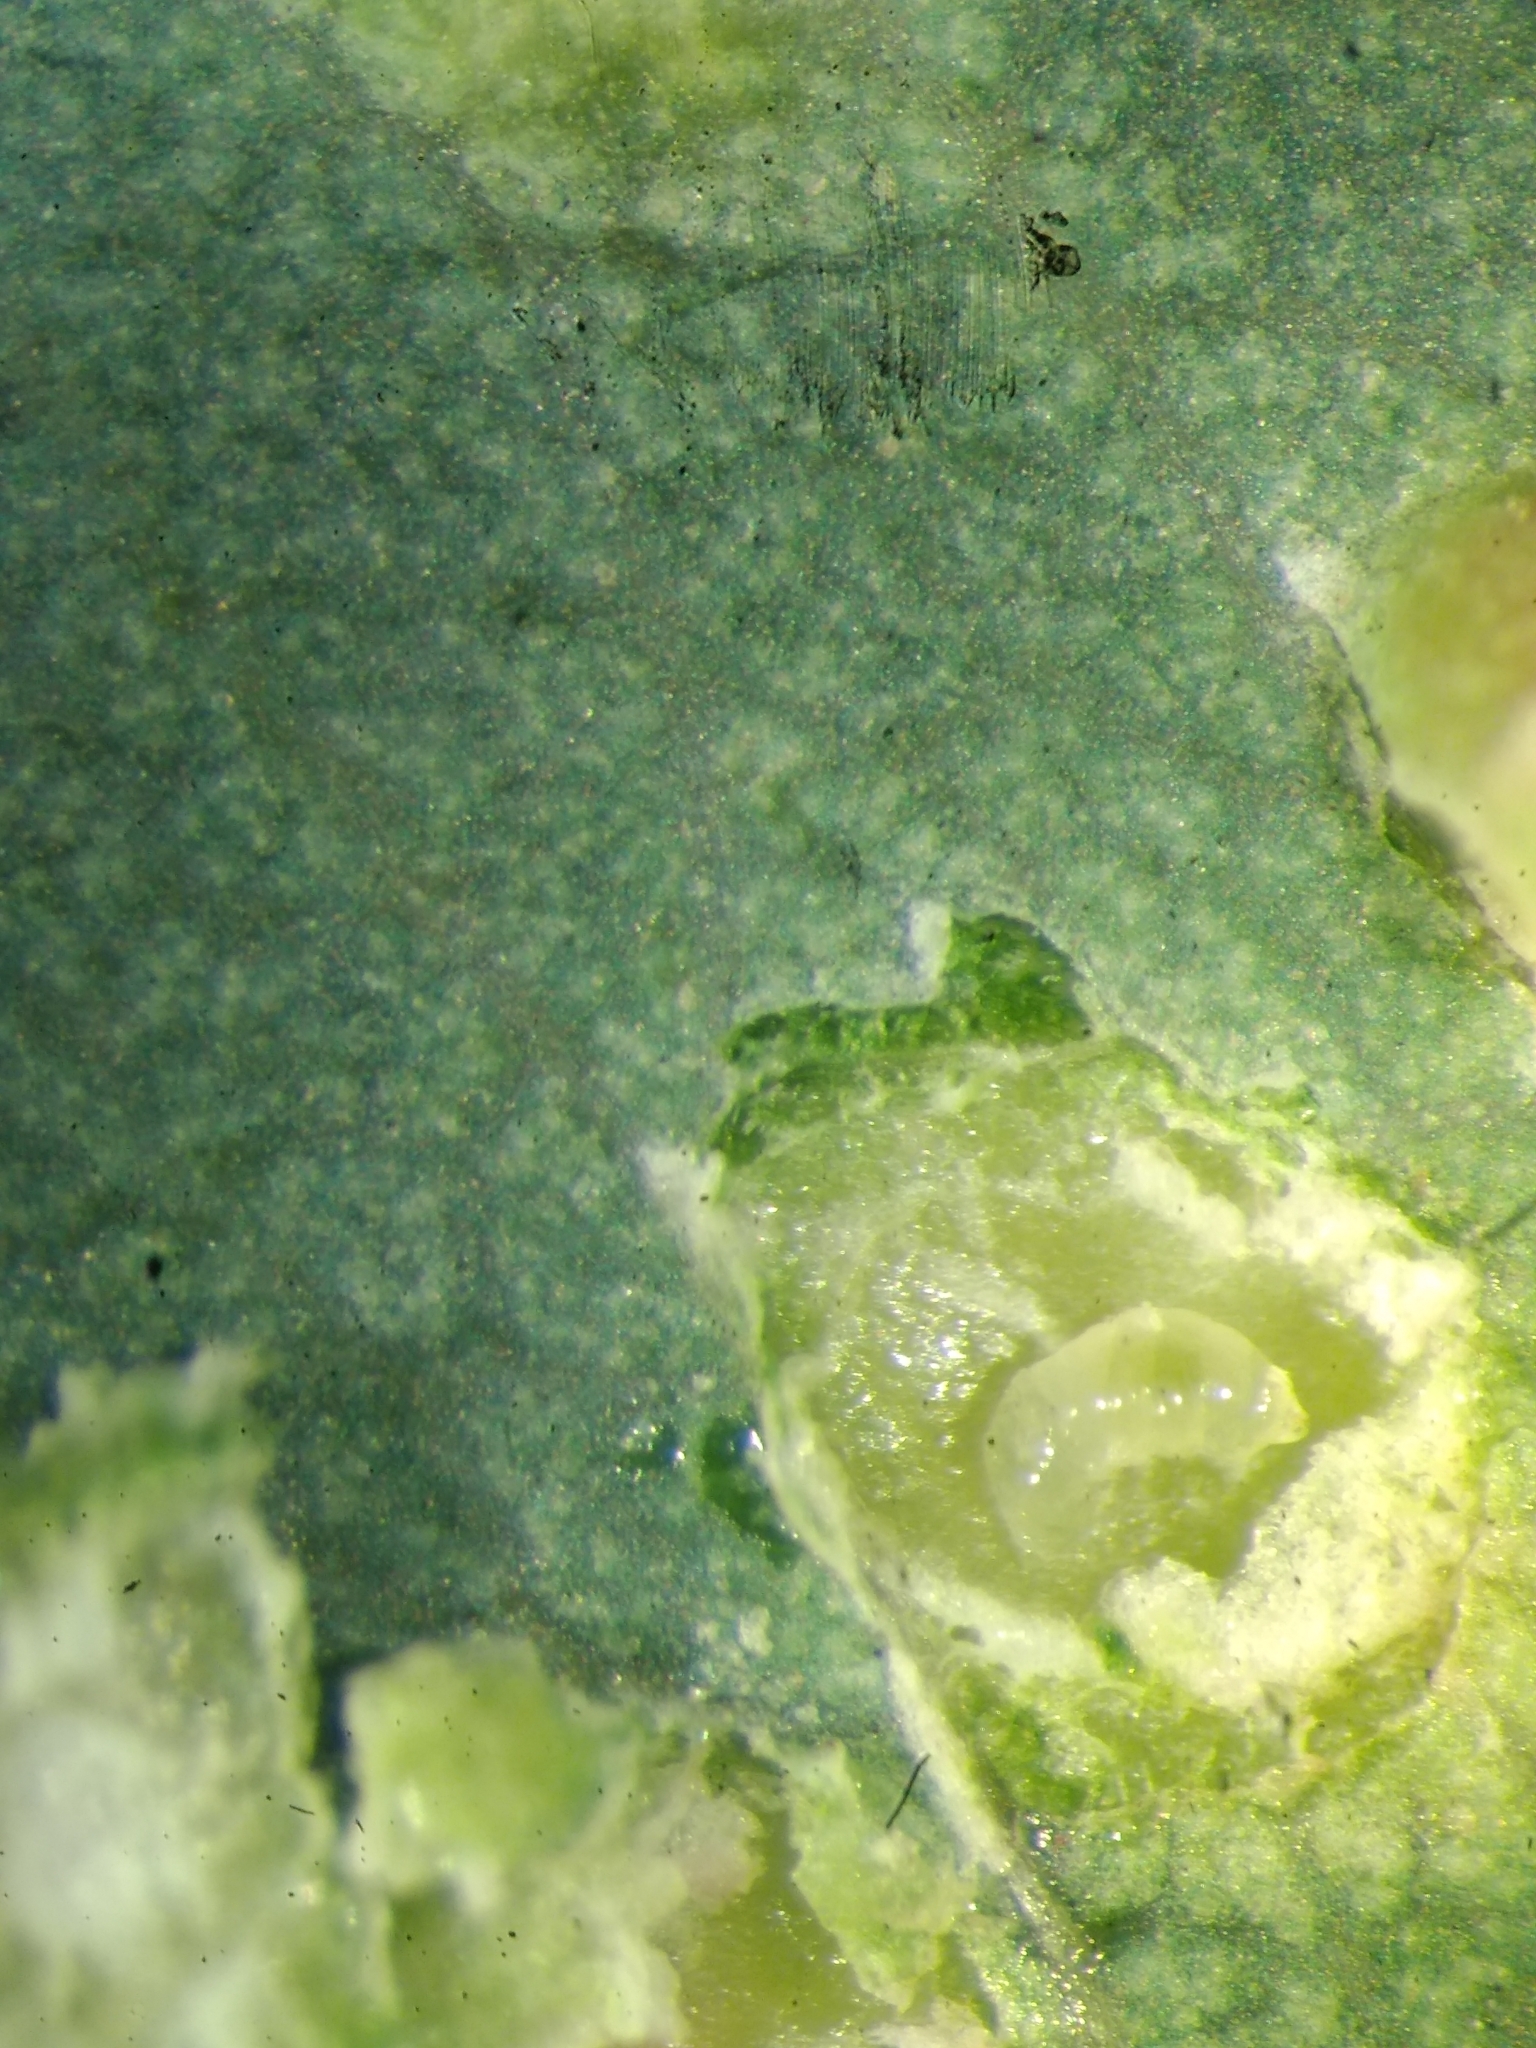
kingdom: Animalia
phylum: Arthropoda
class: Insecta
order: Hymenoptera
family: Eulophidae
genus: Ophelimus
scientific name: Ophelimus maskelli
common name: Gall wasp
